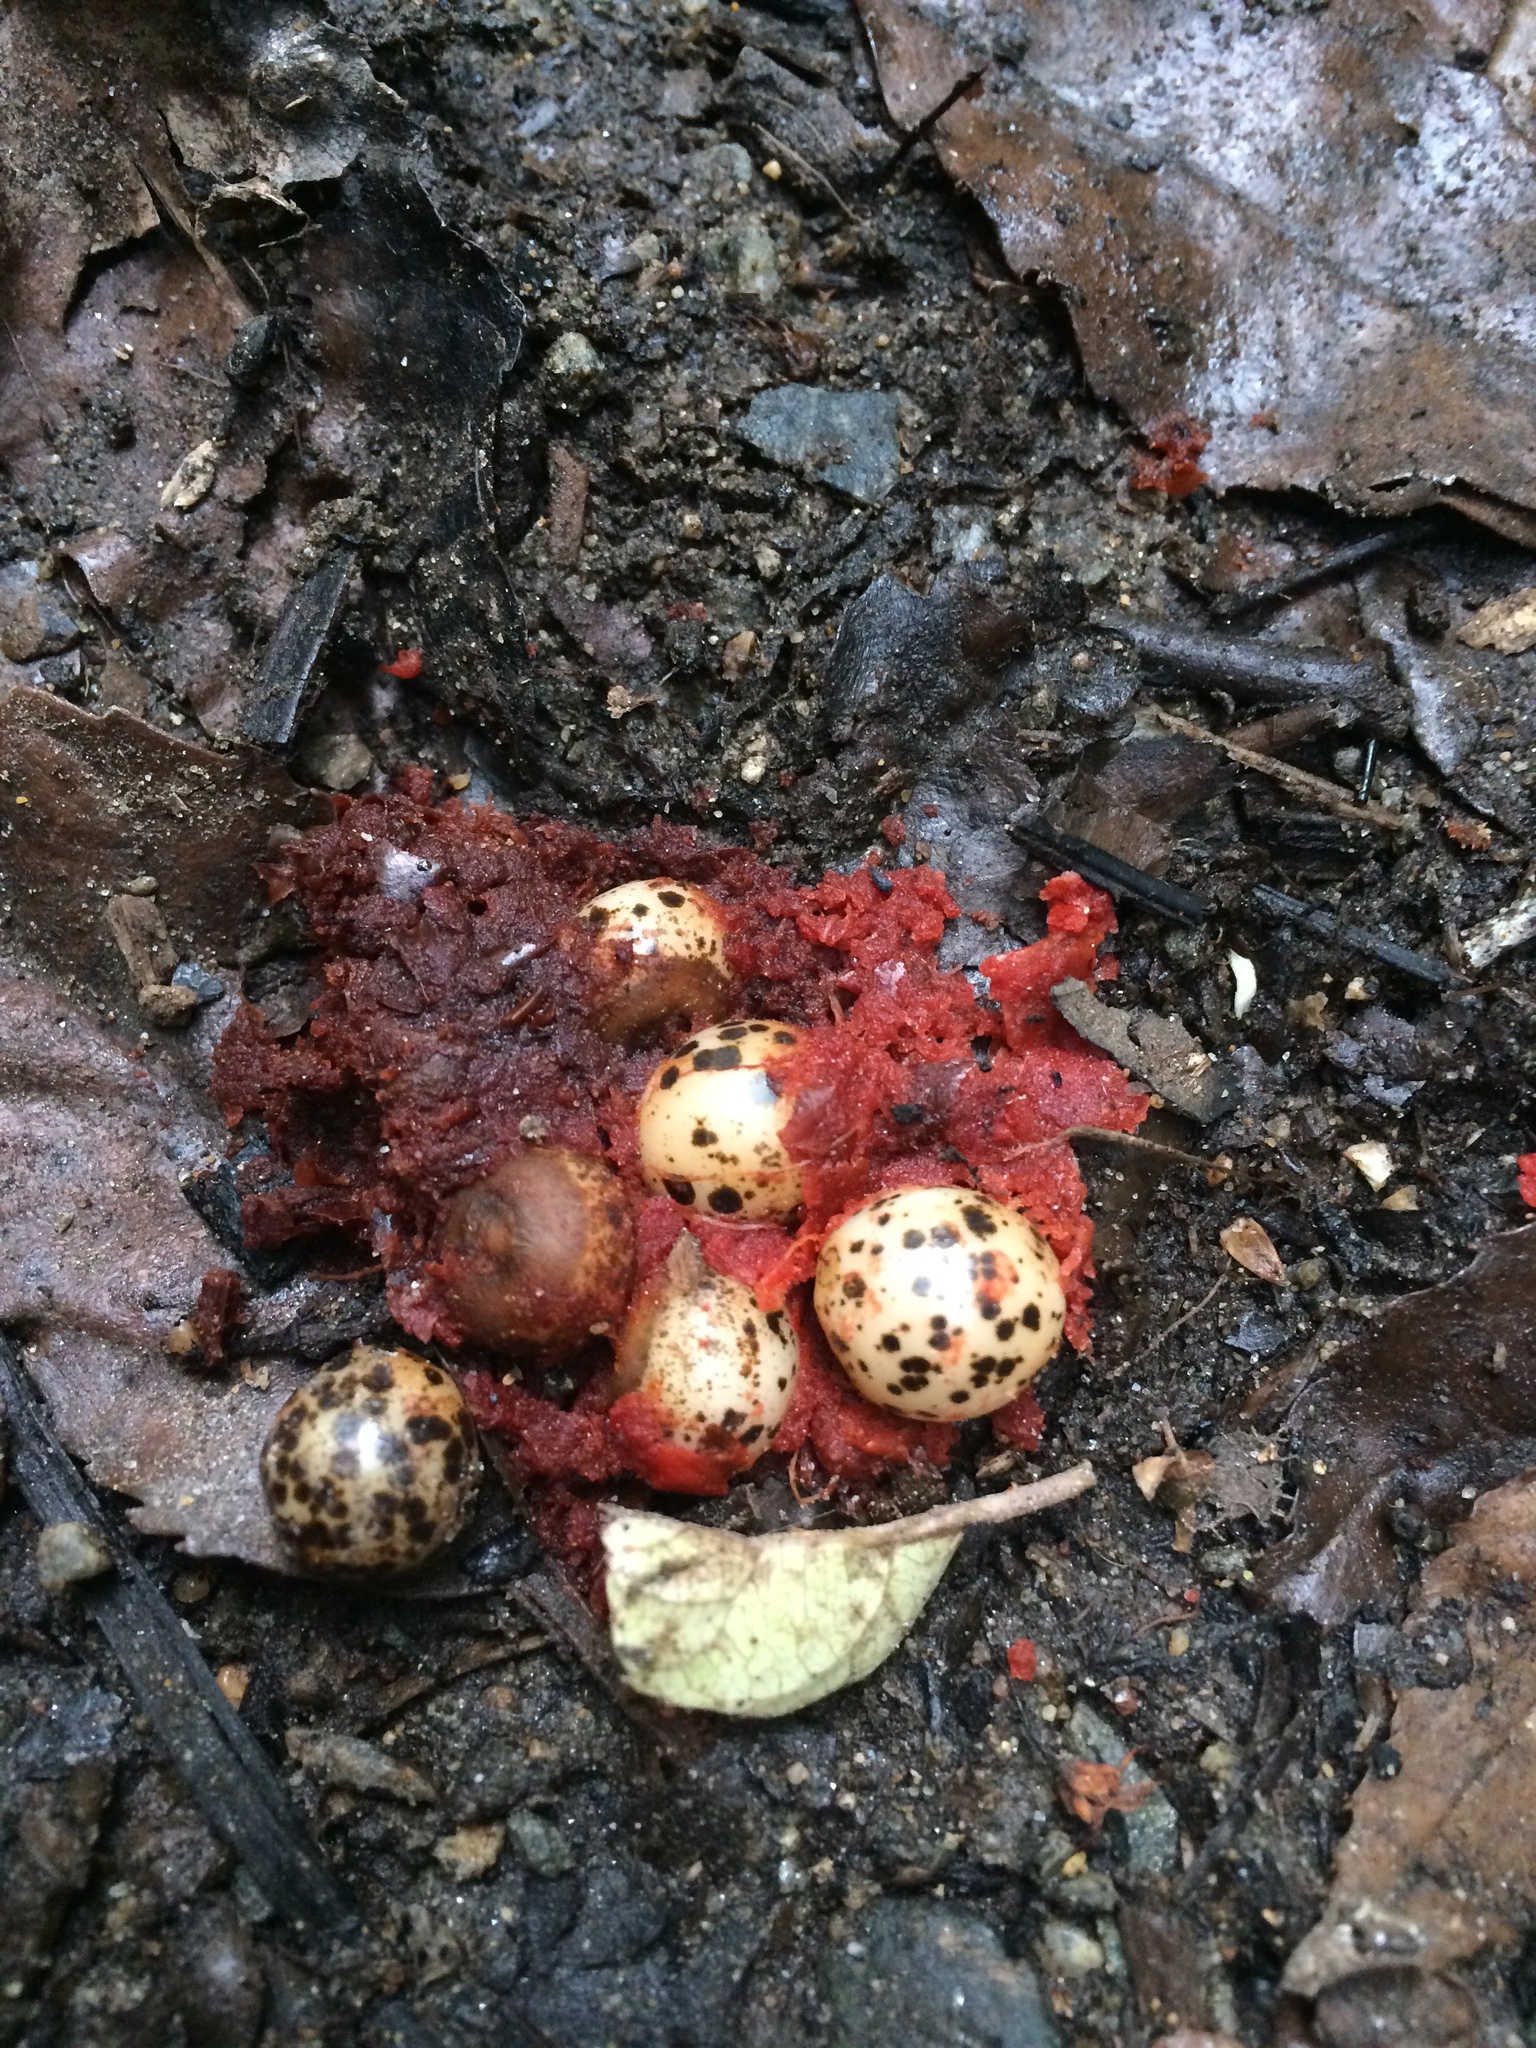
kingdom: Plantae
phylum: Tracheophyta
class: Liliopsida
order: Liliales
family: Ripogonaceae
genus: Ripogonum
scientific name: Ripogonum scandens
